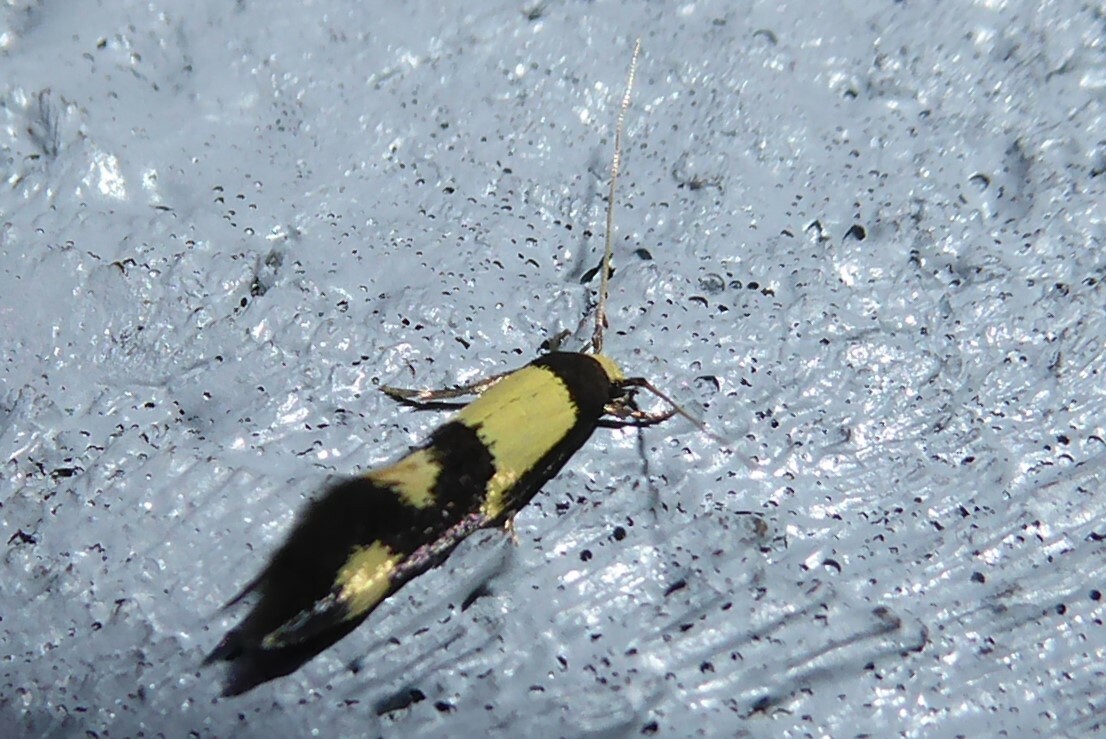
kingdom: Animalia
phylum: Arthropoda
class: Insecta
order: Lepidoptera
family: Tineidae
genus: Opogona
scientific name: Opogona comptella
